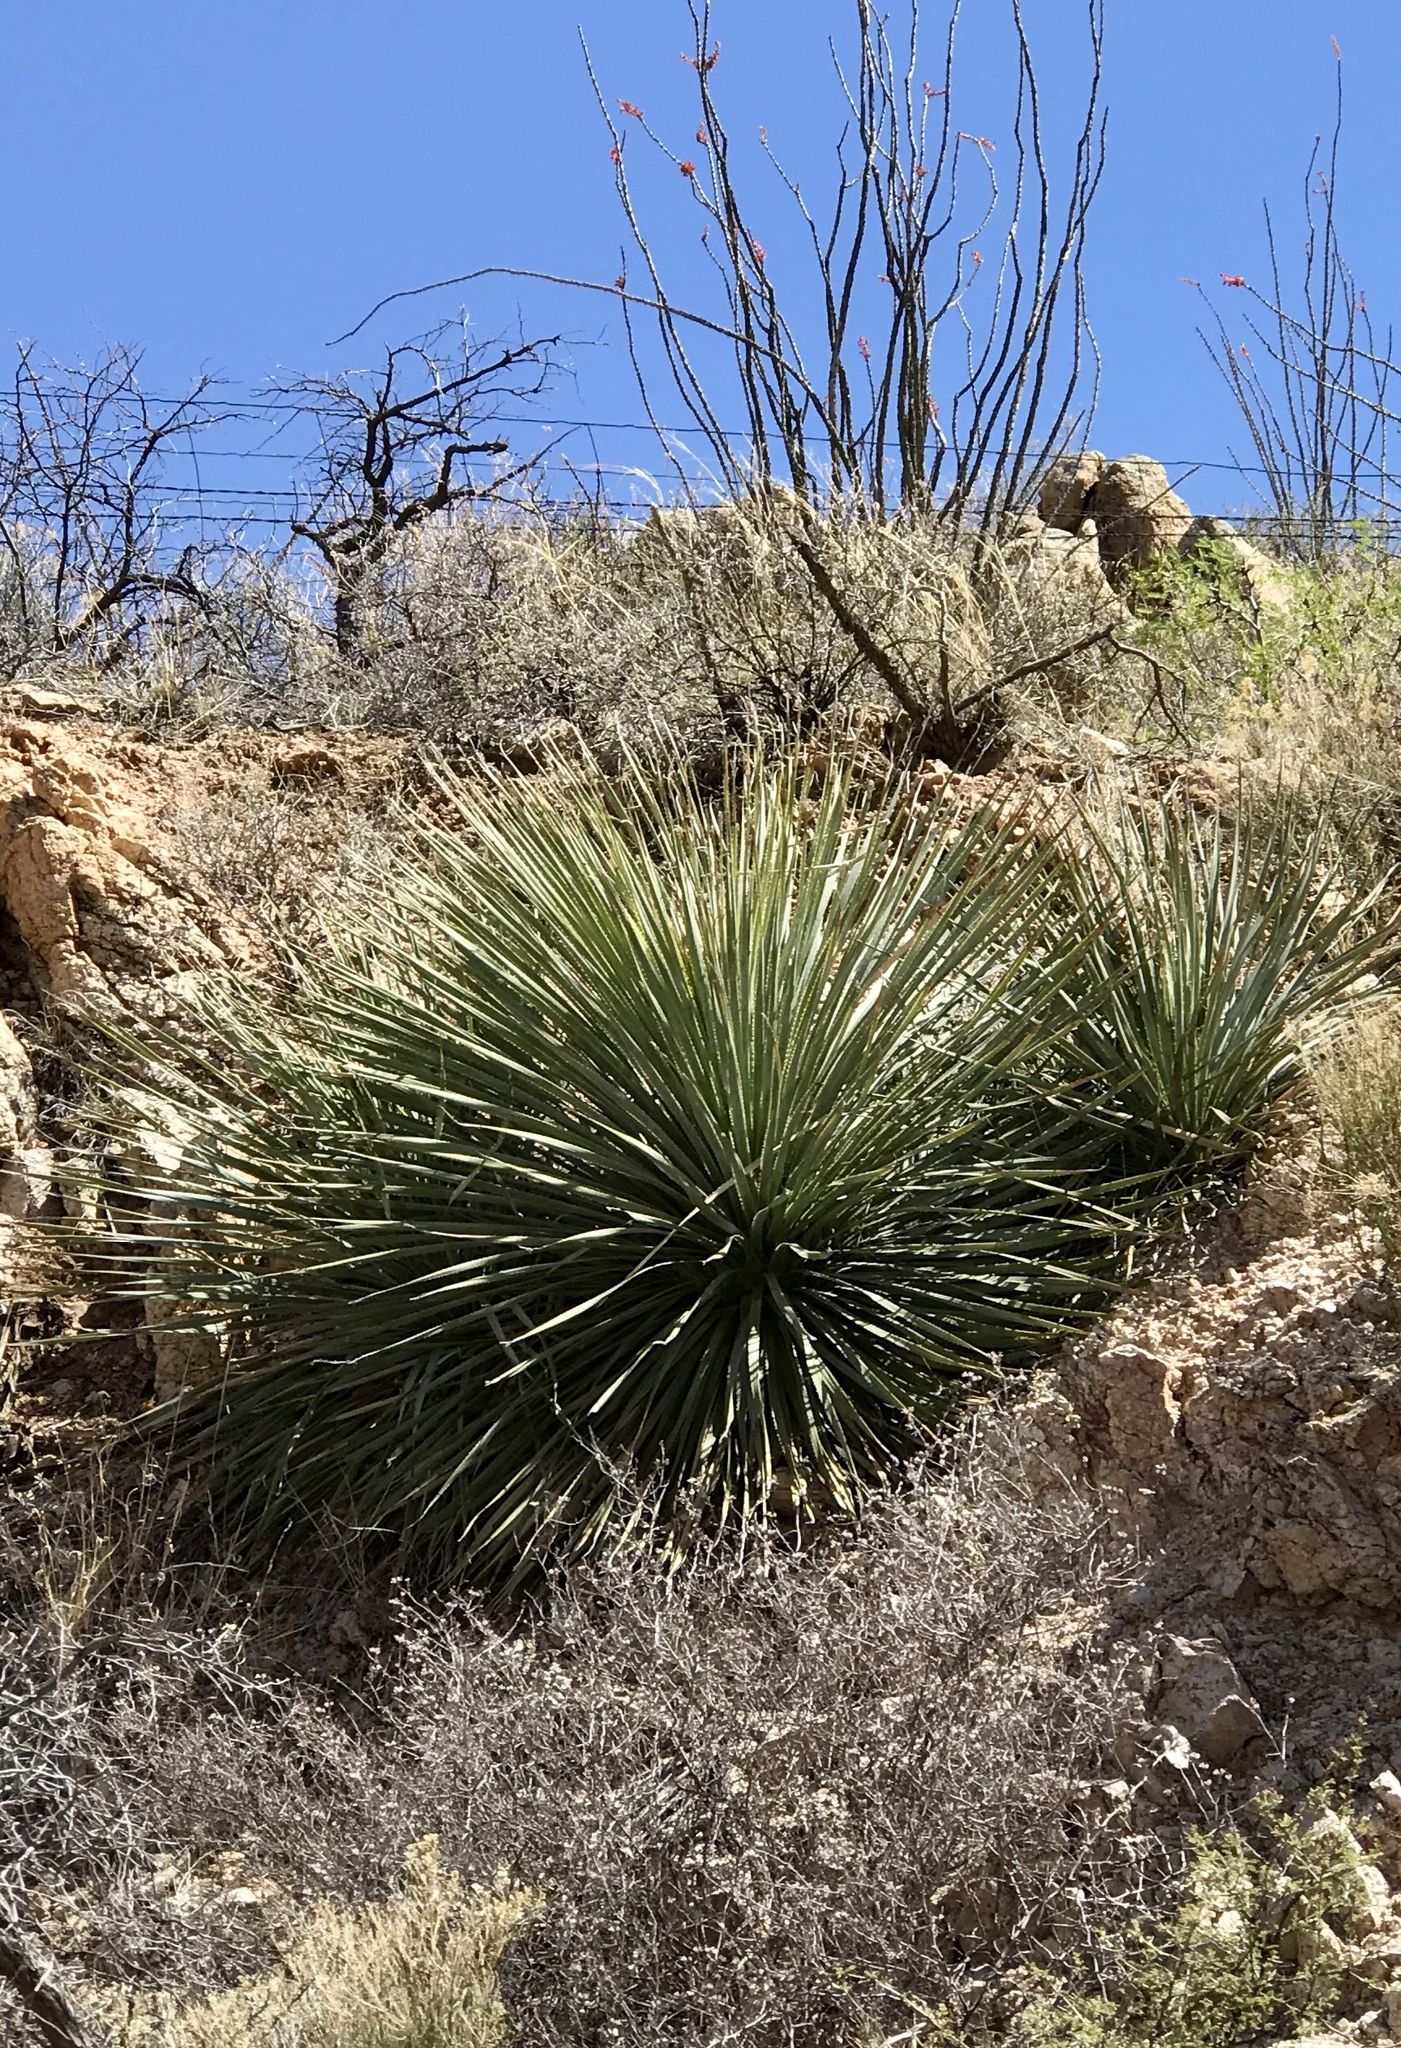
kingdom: Plantae
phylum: Tracheophyta
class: Liliopsida
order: Asparagales
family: Asparagaceae
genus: Dasylirion
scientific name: Dasylirion wheeleri
